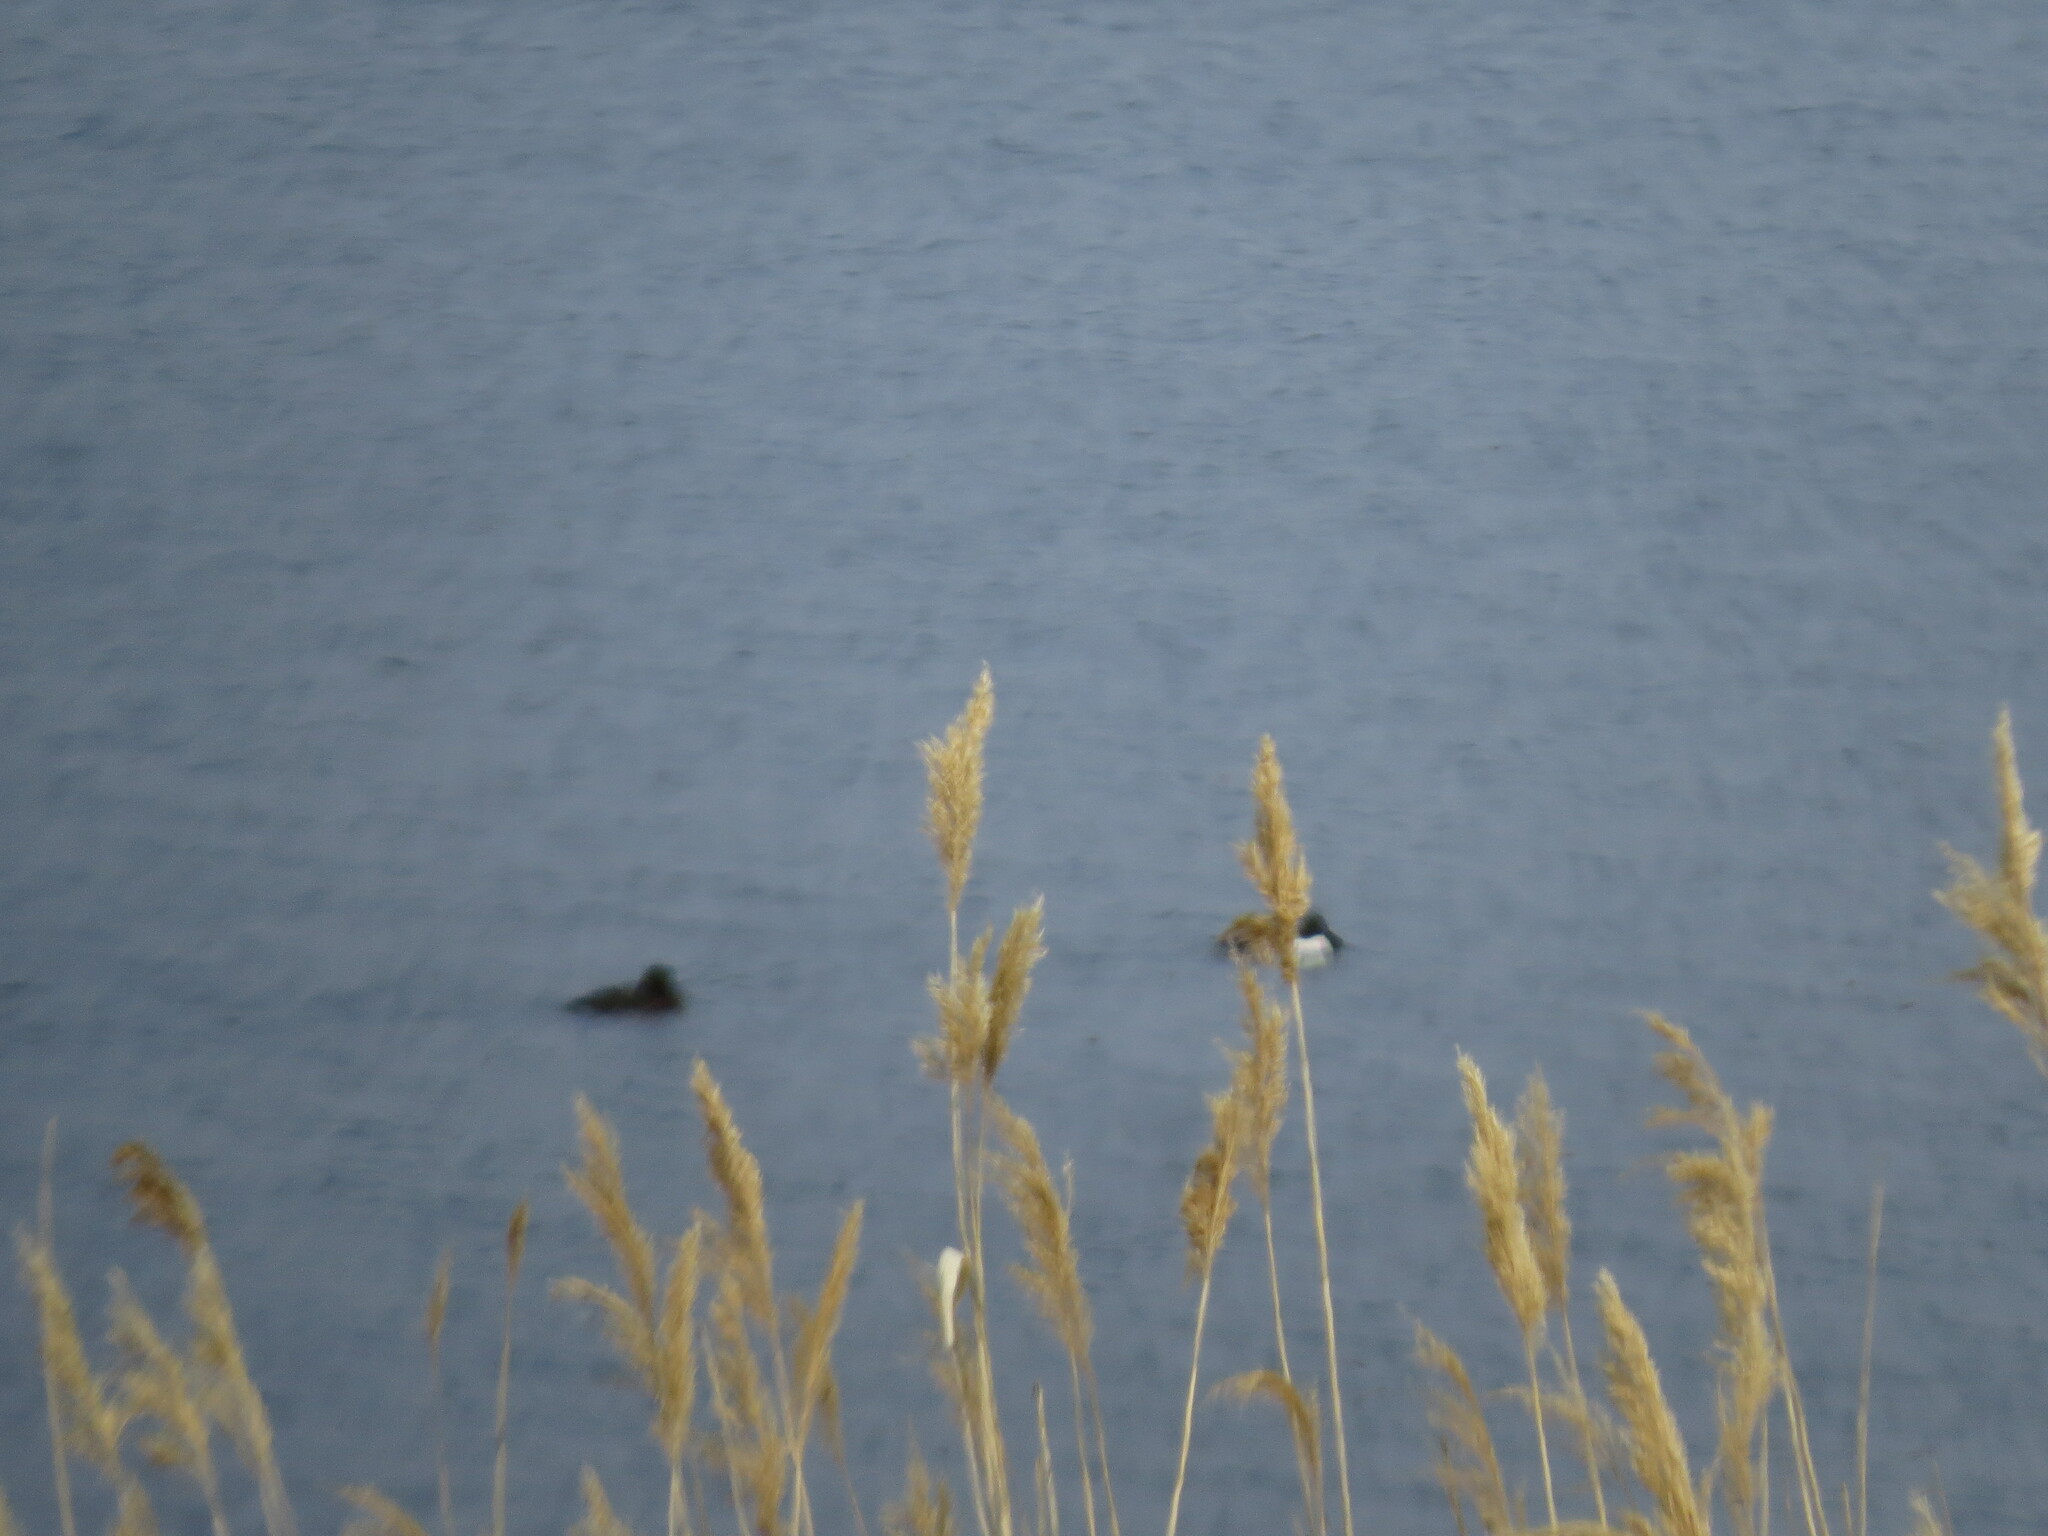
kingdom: Animalia
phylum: Chordata
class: Aves
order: Anseriformes
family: Anatidae
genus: Aythya
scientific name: Aythya fuligula
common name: Tufted duck
